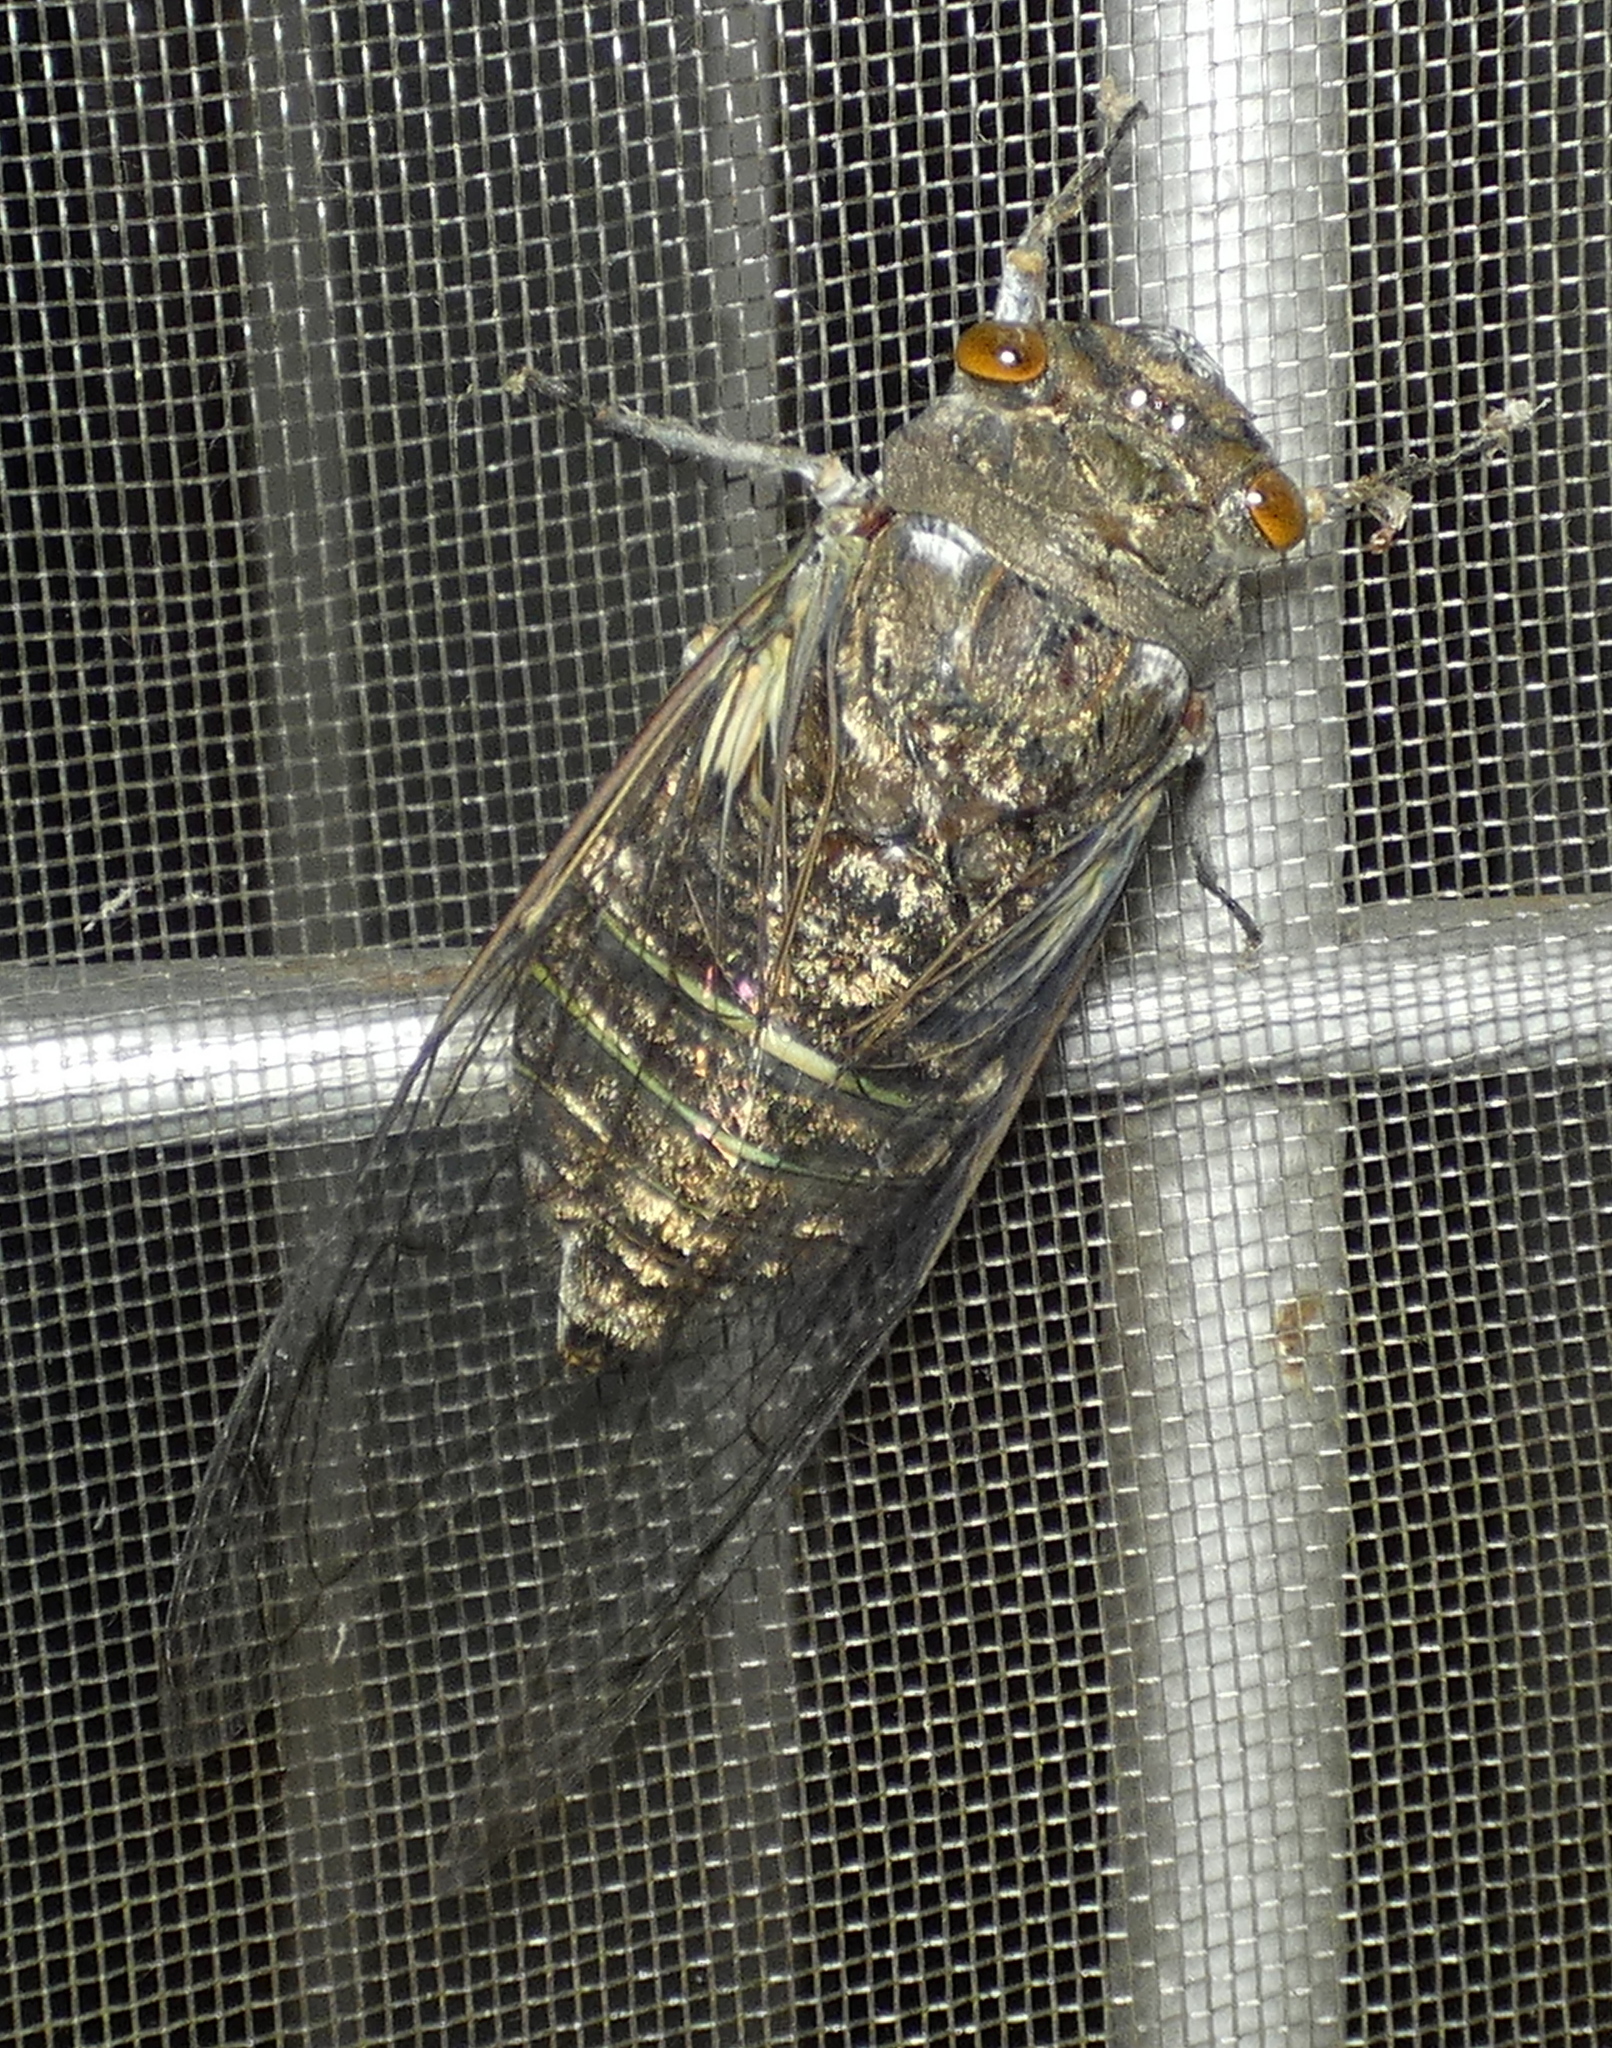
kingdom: Animalia
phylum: Arthropoda
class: Insecta
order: Hemiptera
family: Cicadidae
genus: Quesada
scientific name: Quesada gigas
